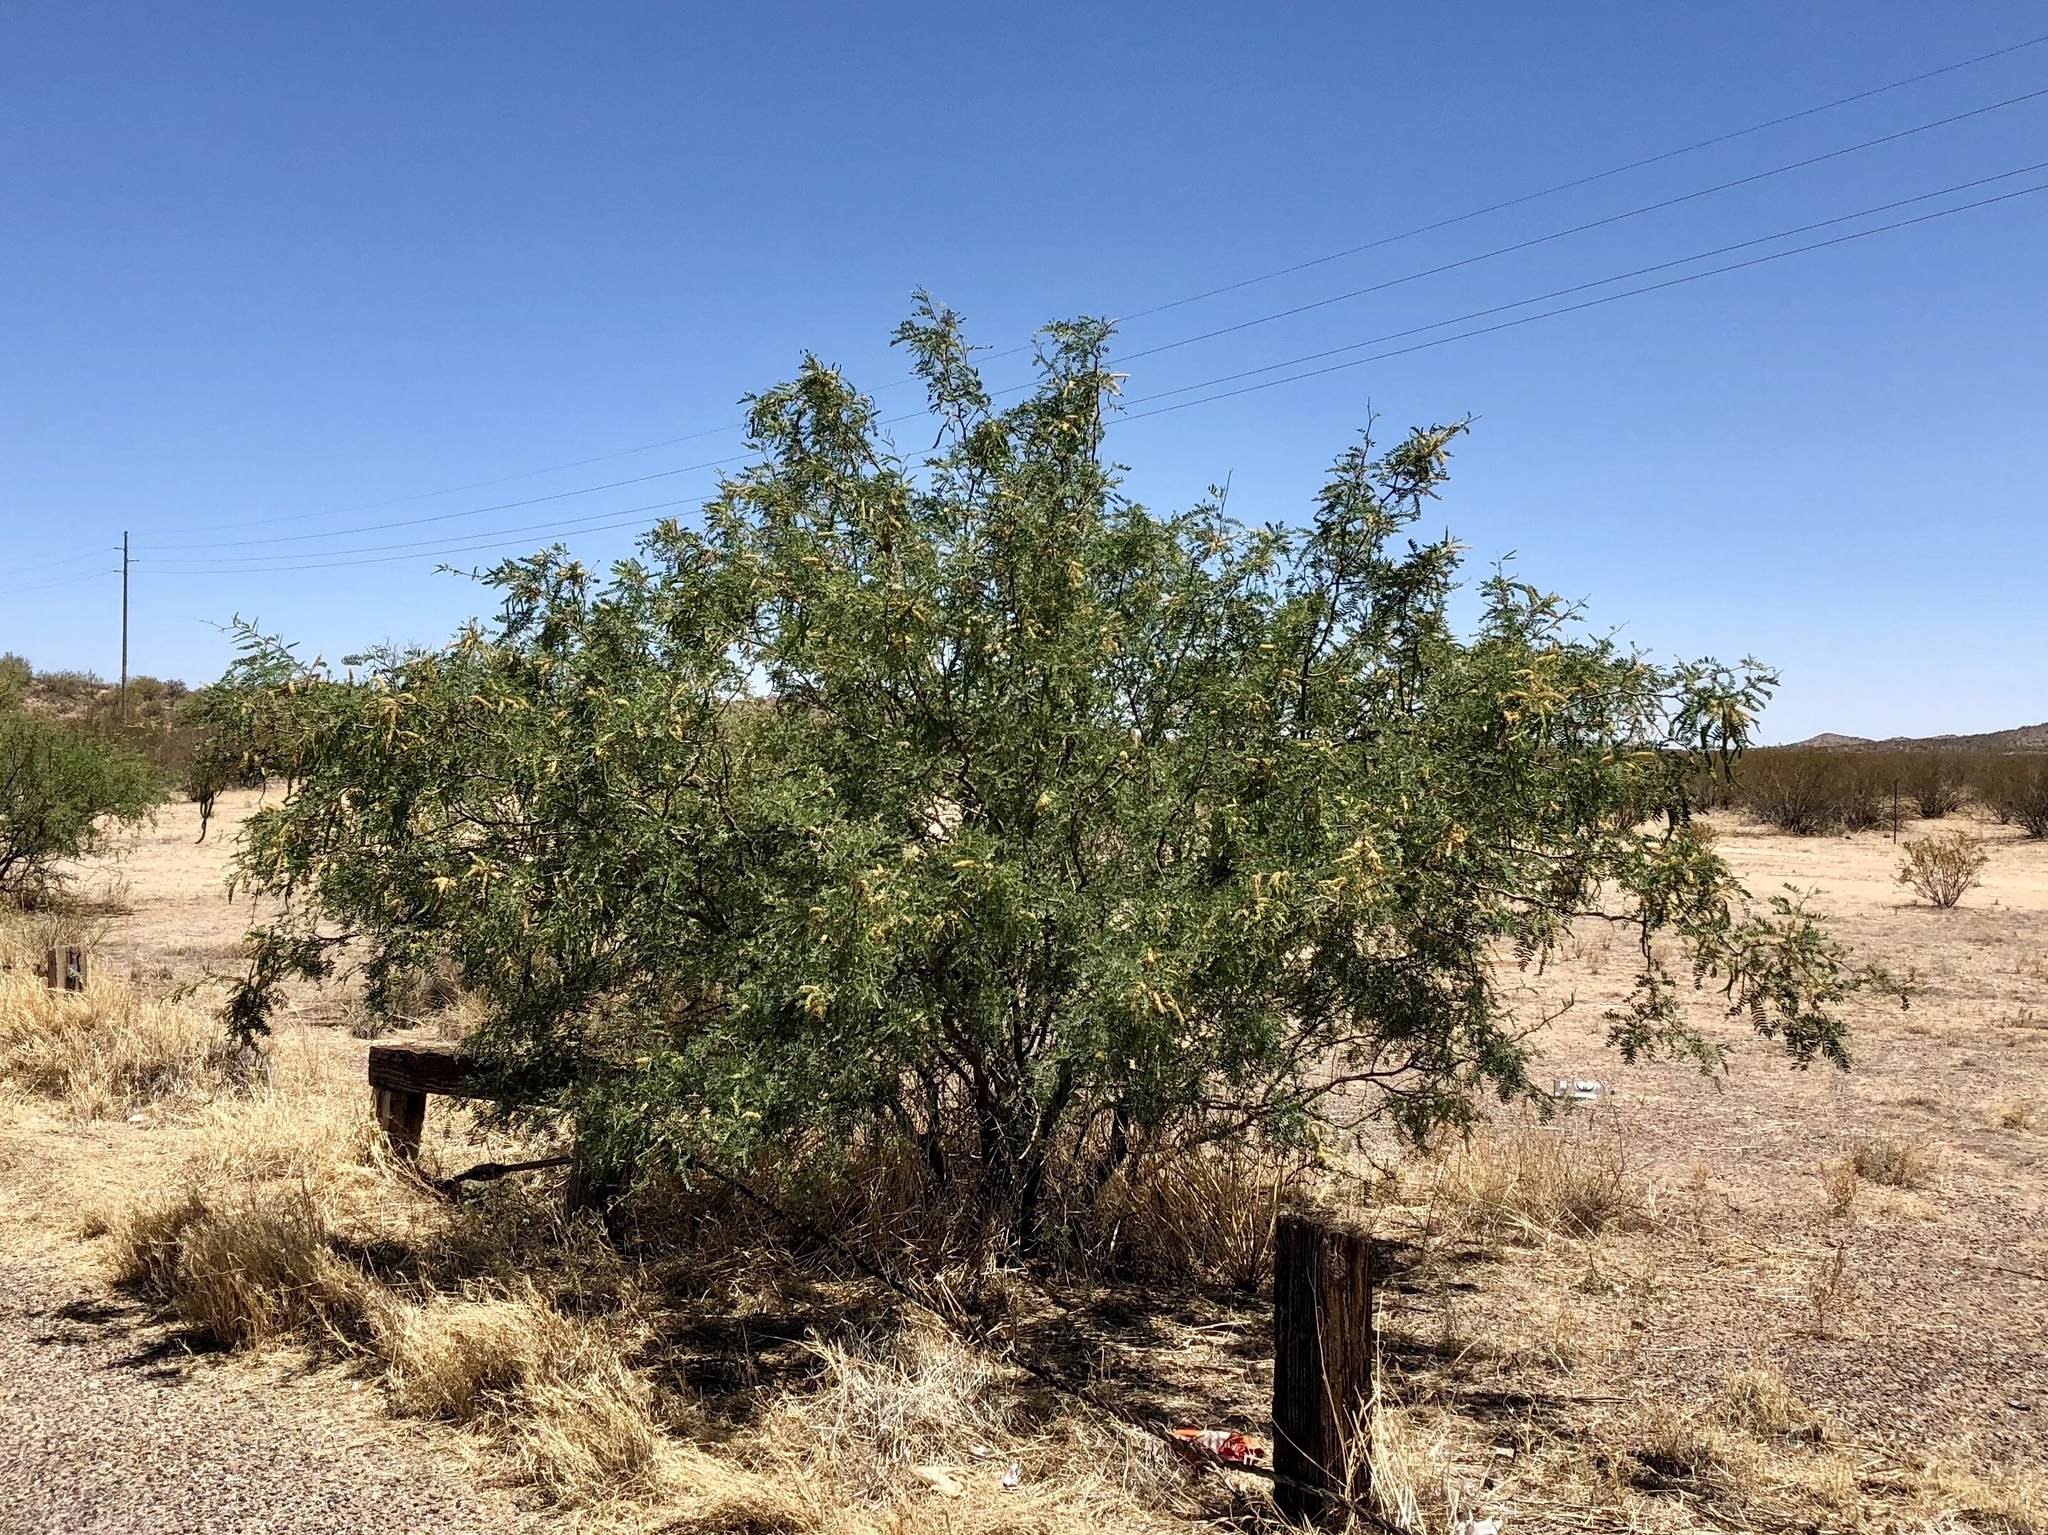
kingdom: Plantae
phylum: Tracheophyta
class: Magnoliopsida
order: Fabales
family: Fabaceae
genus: Prosopis
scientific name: Prosopis velutina
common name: Velvet mesquite
